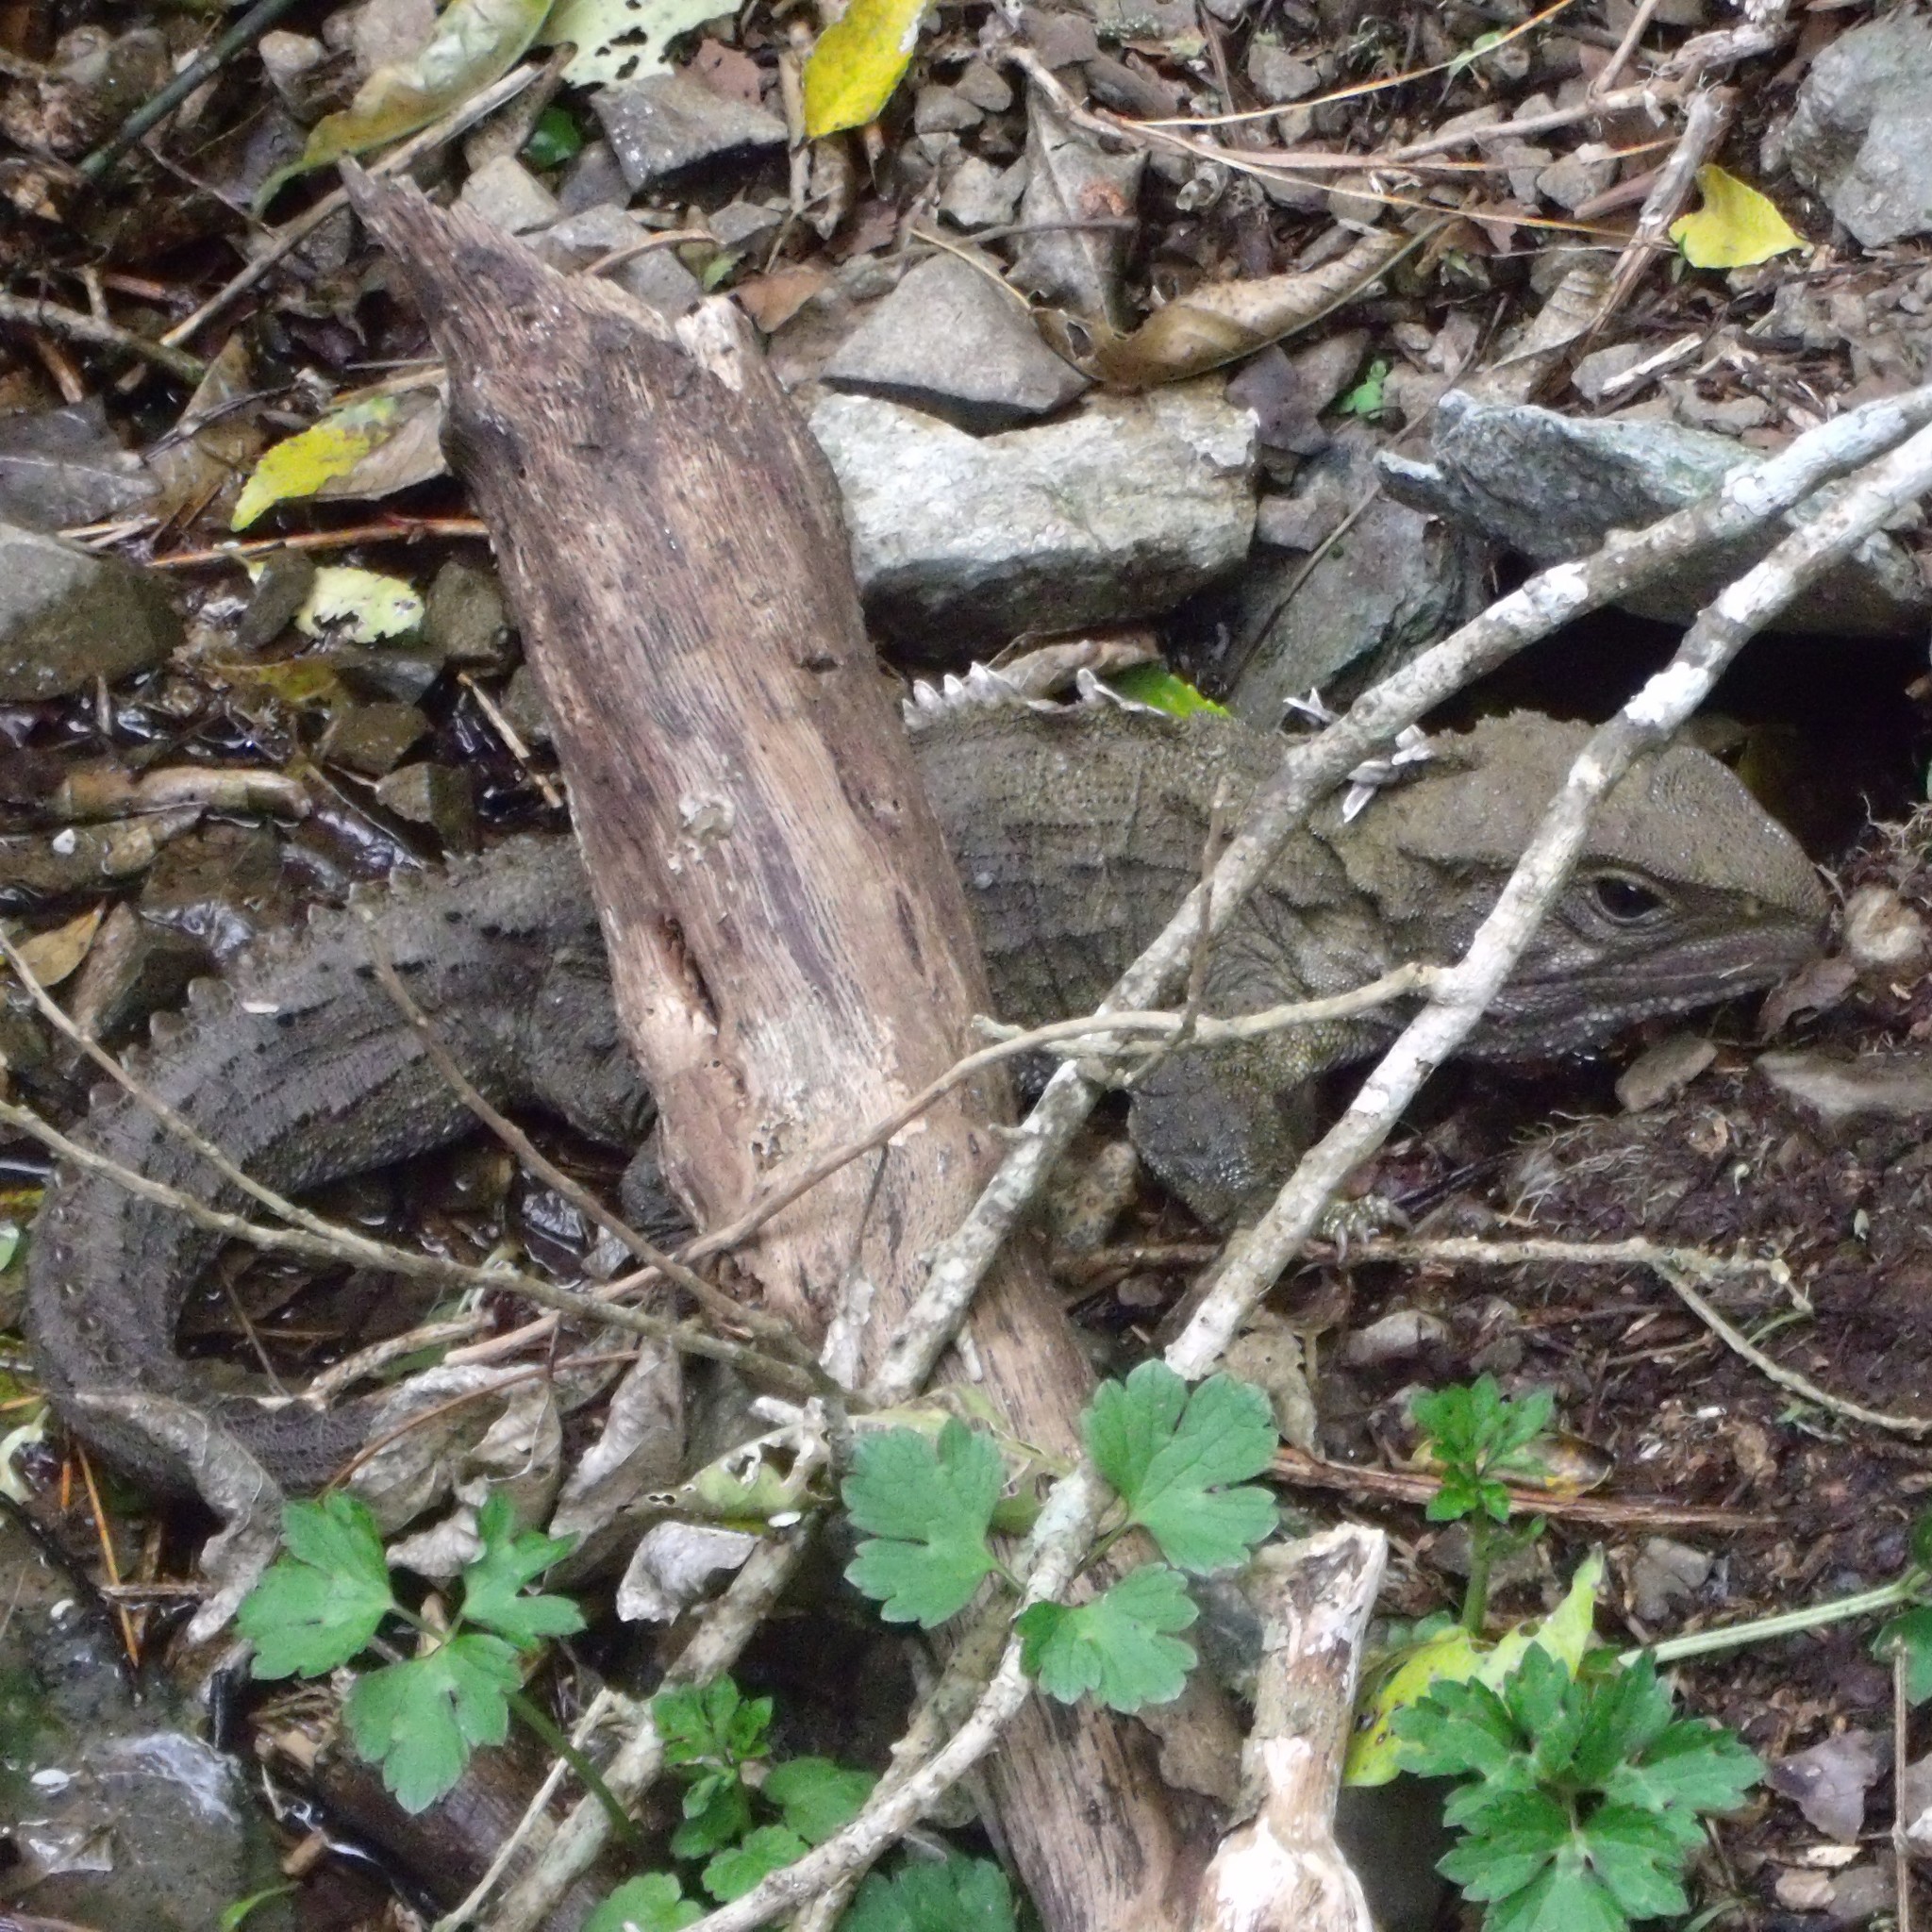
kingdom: Animalia
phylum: Chordata
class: Sphenodontia
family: Sphenodontidae
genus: Sphenodon
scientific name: Sphenodon punctatus
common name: Tuatara
